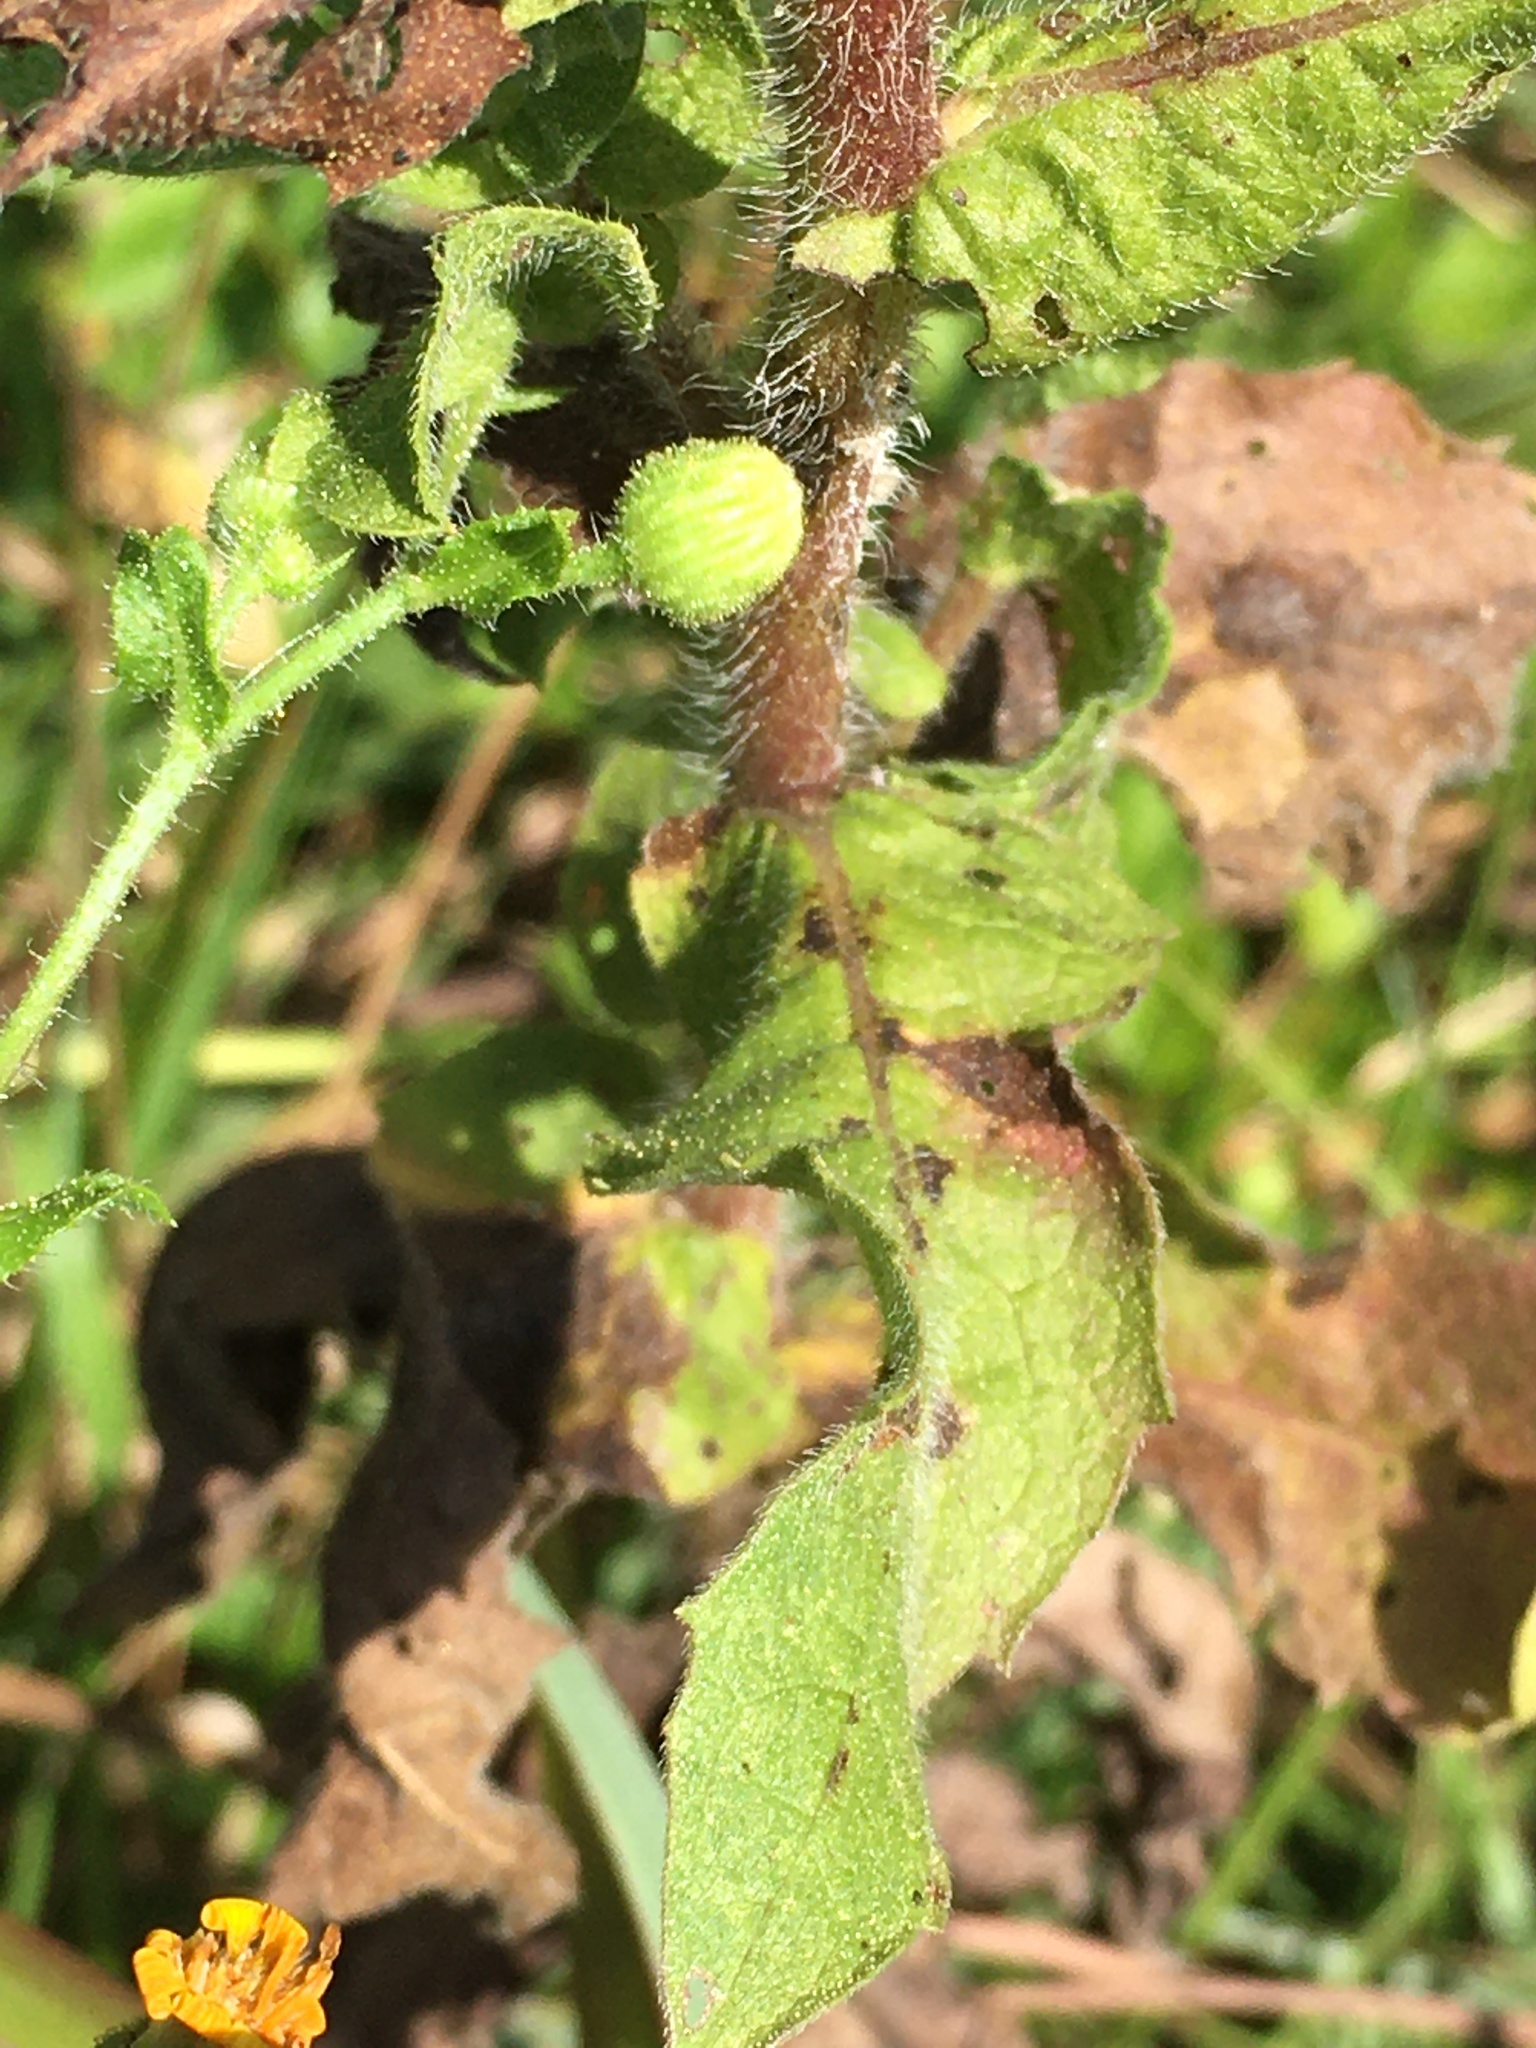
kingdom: Plantae
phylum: Tracheophyta
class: Magnoliopsida
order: Asterales
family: Asteraceae
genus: Heterotheca
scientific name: Heterotheca subaxillaris
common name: Camphorweed
